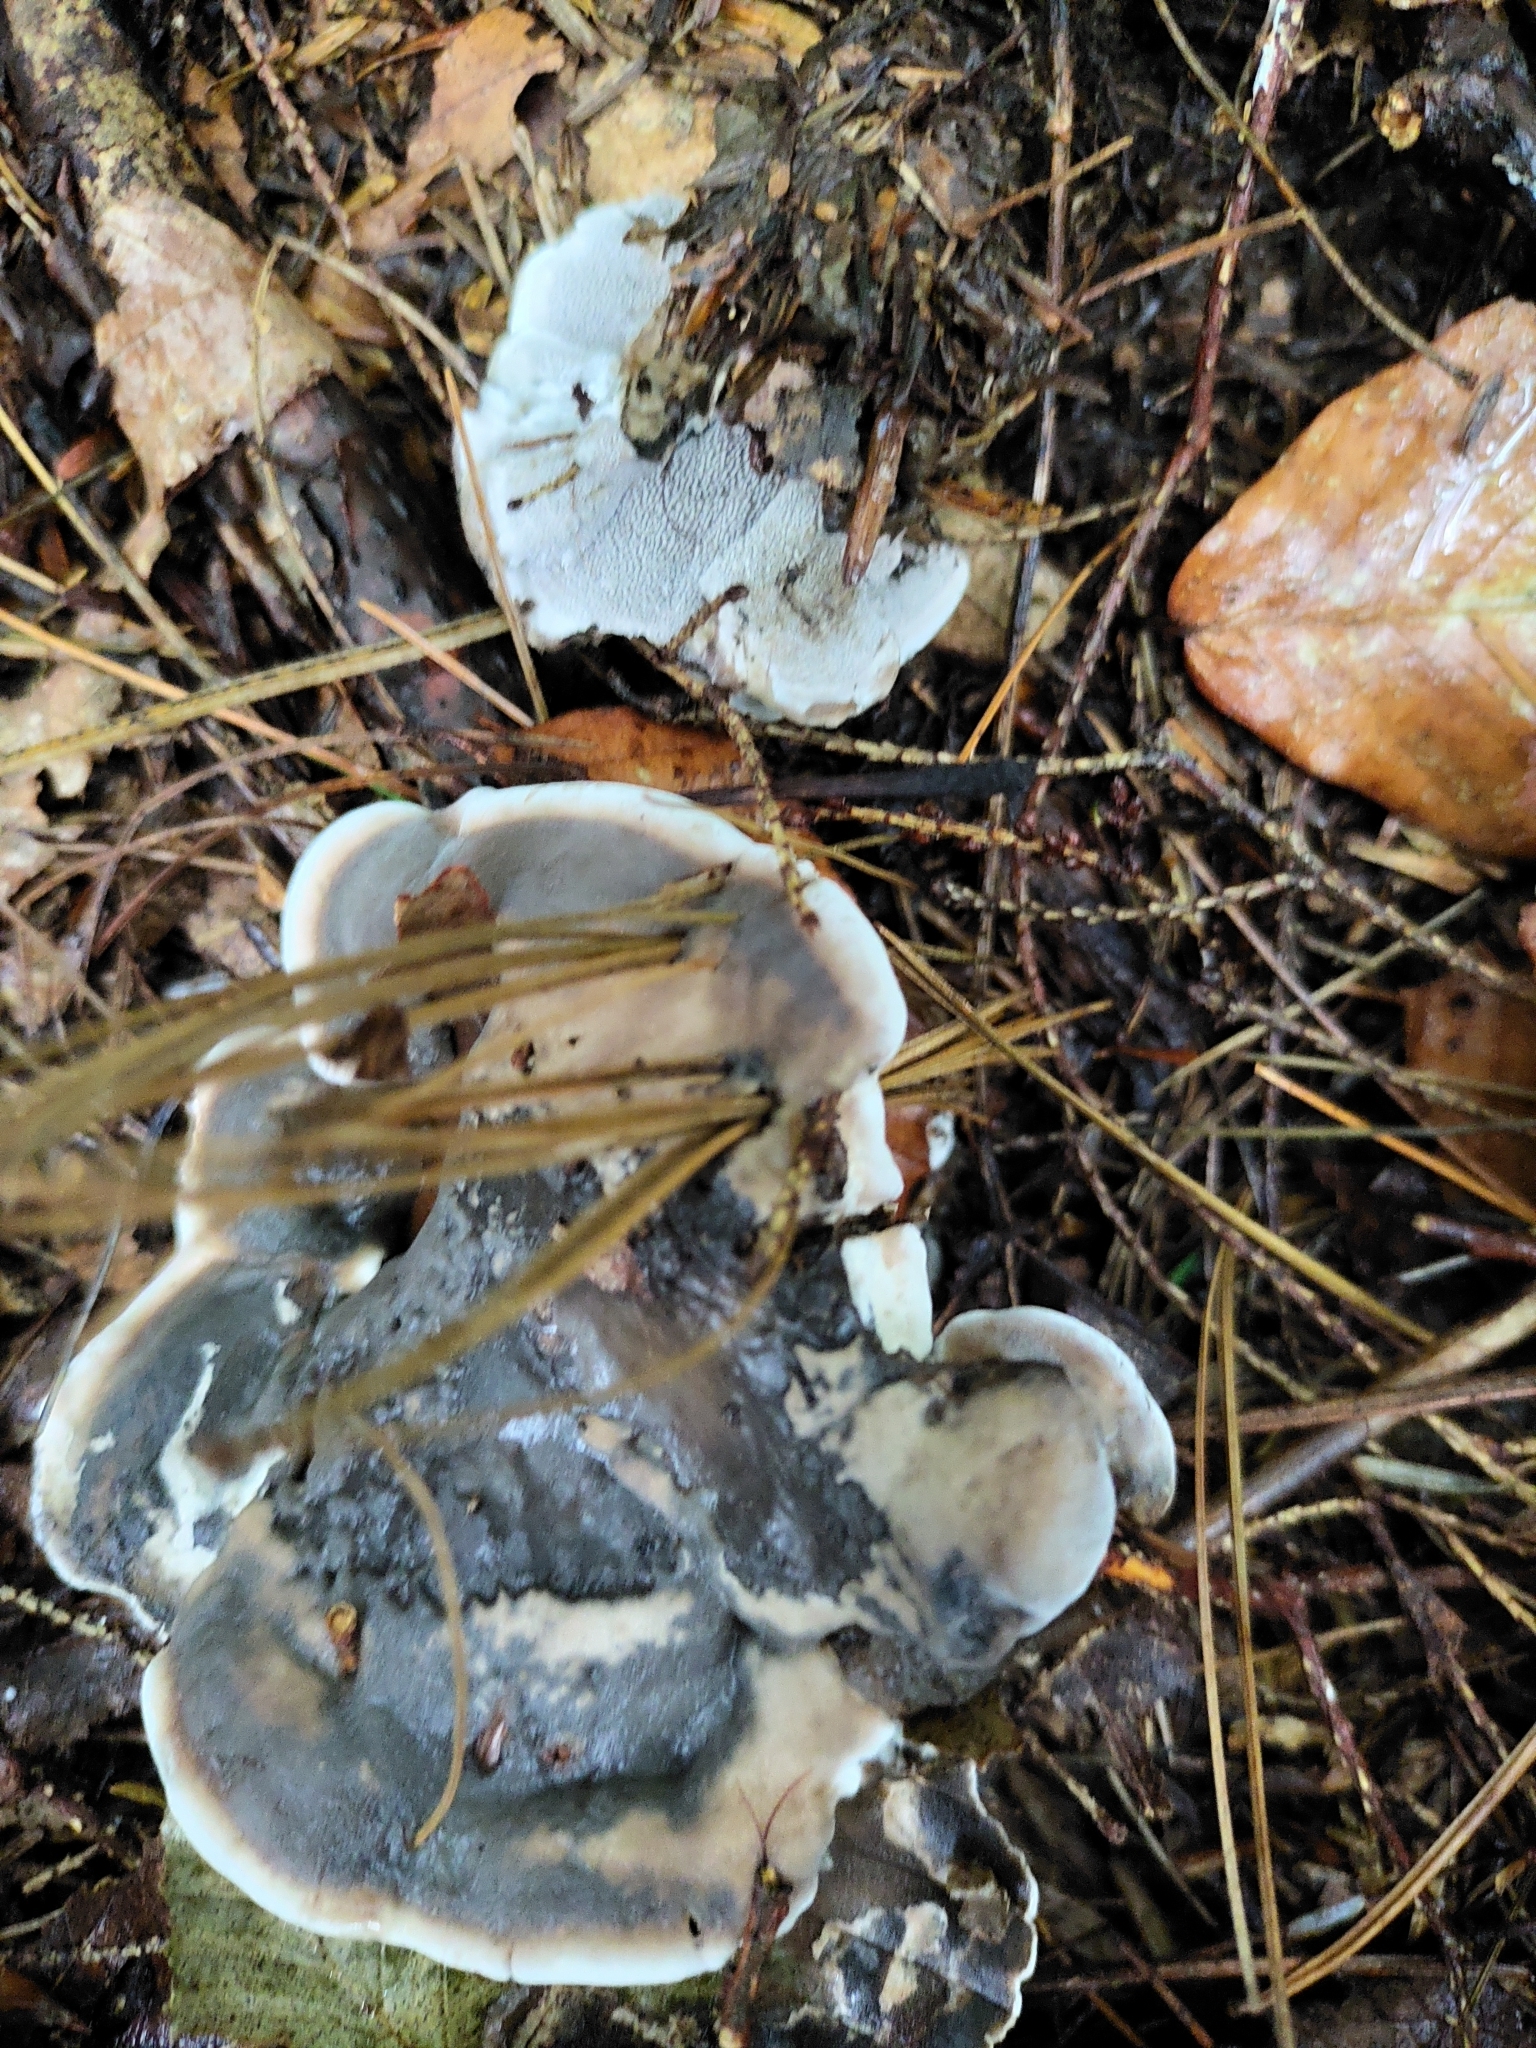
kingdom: Fungi
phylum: Basidiomycota
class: Agaricomycetes
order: Thelephorales
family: Thelephoraceae
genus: Phellodon
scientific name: Phellodon niger
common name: Black tooth
